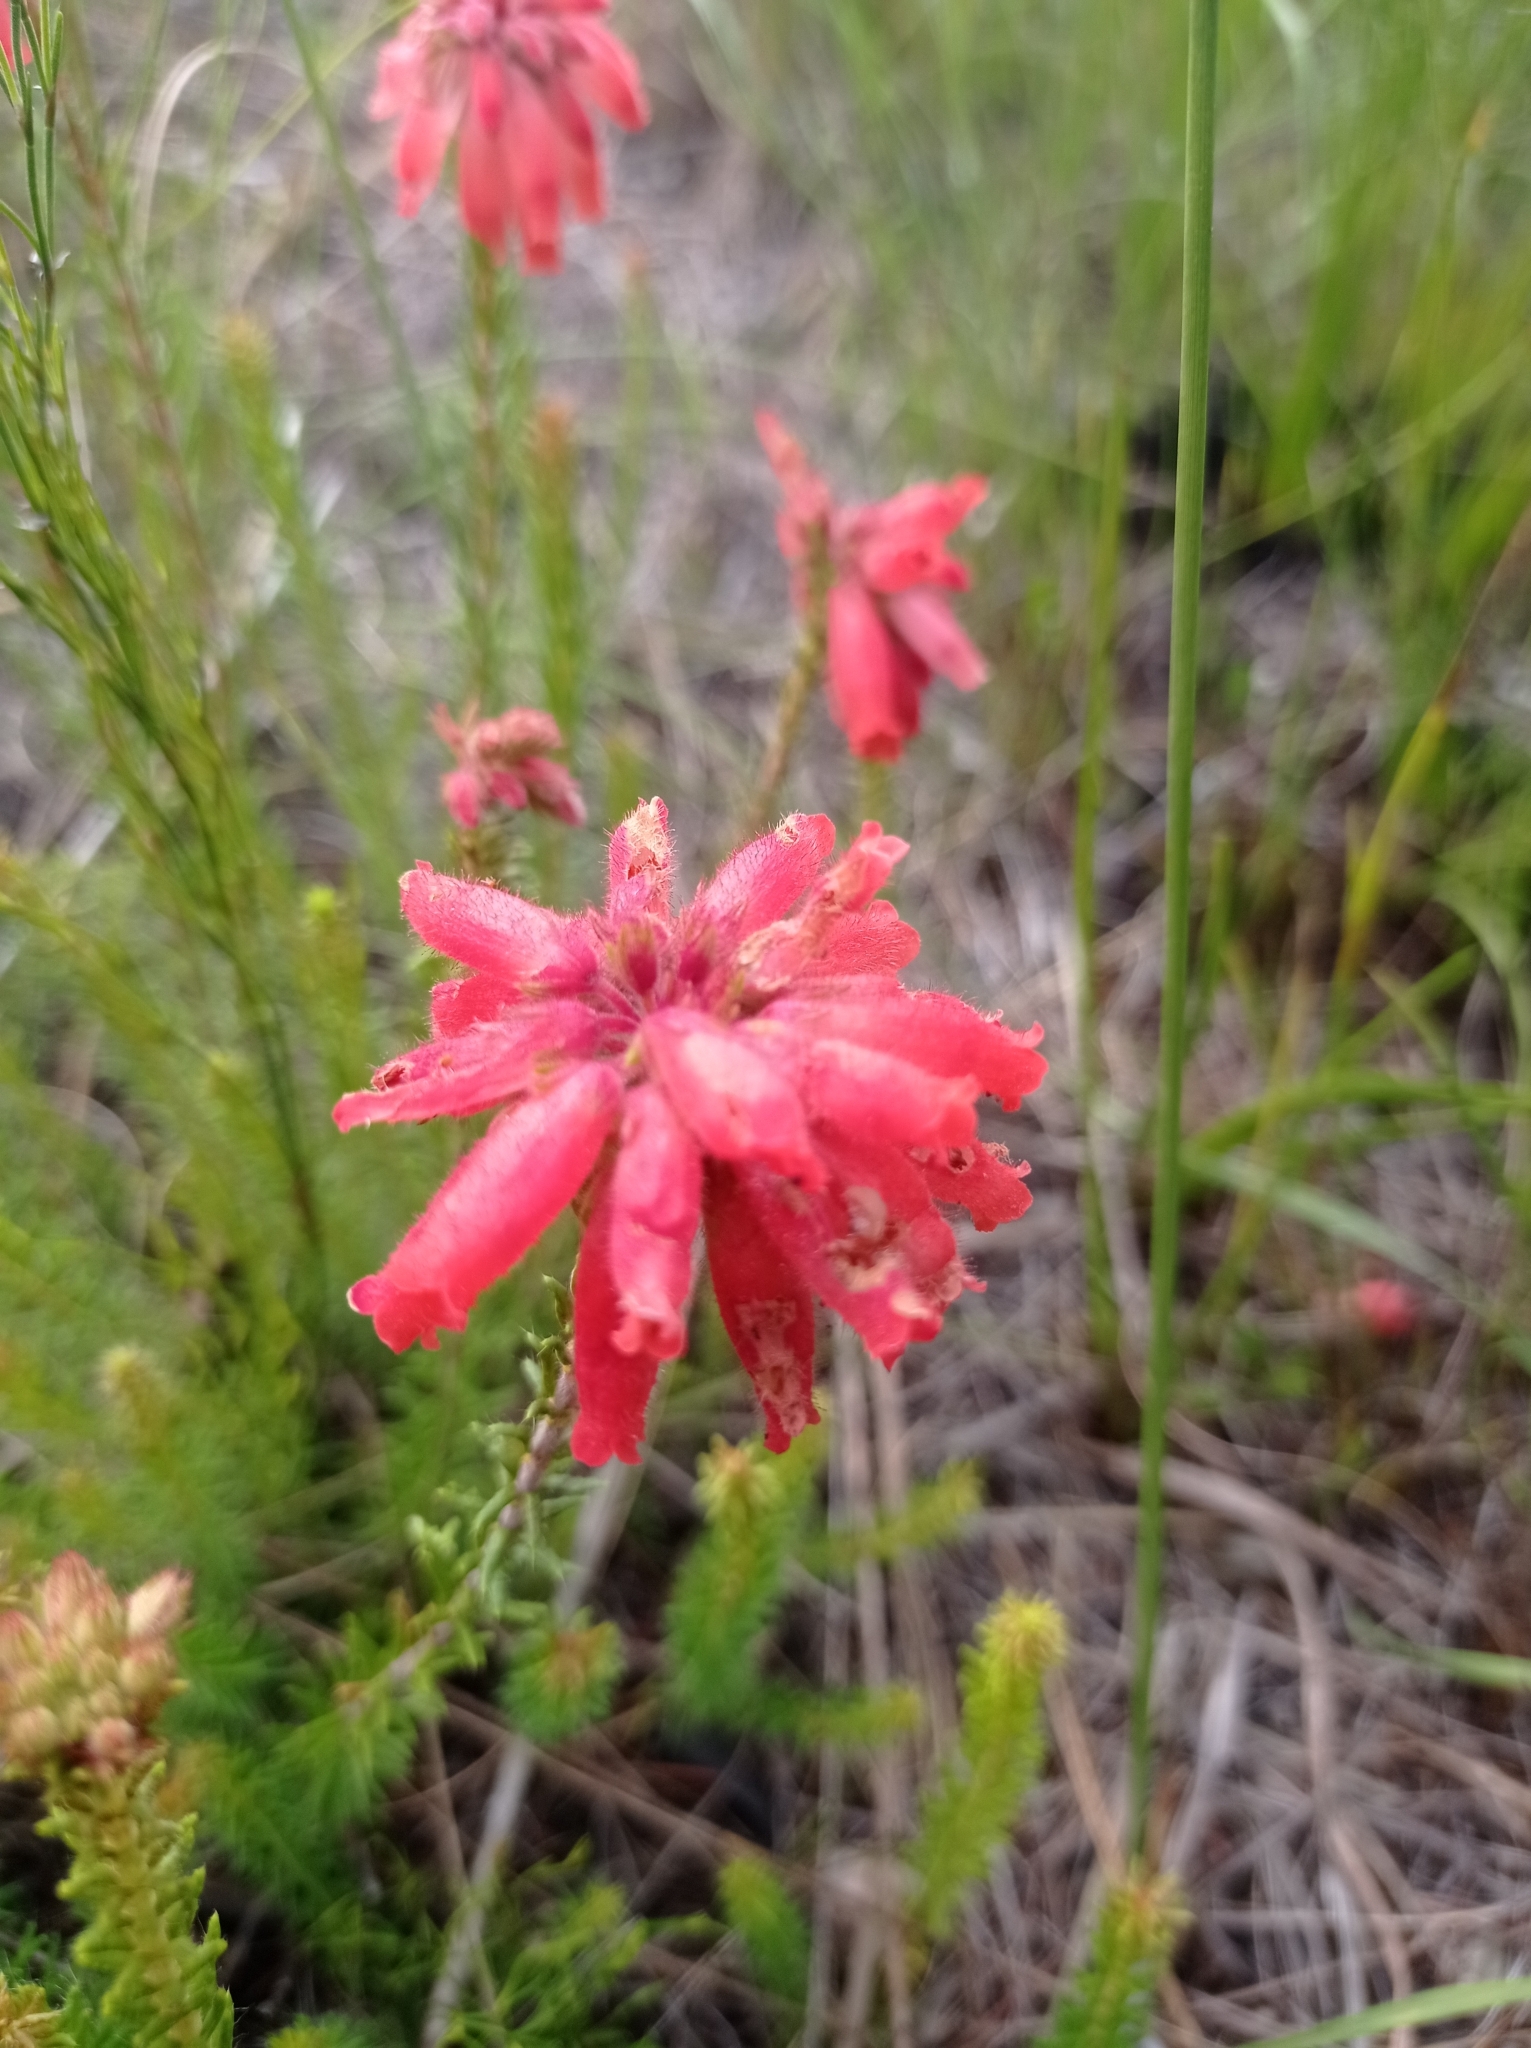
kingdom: Plantae
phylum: Tracheophyta
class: Magnoliopsida
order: Ericales
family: Ericaceae
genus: Erica
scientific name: Erica cerinthoides
